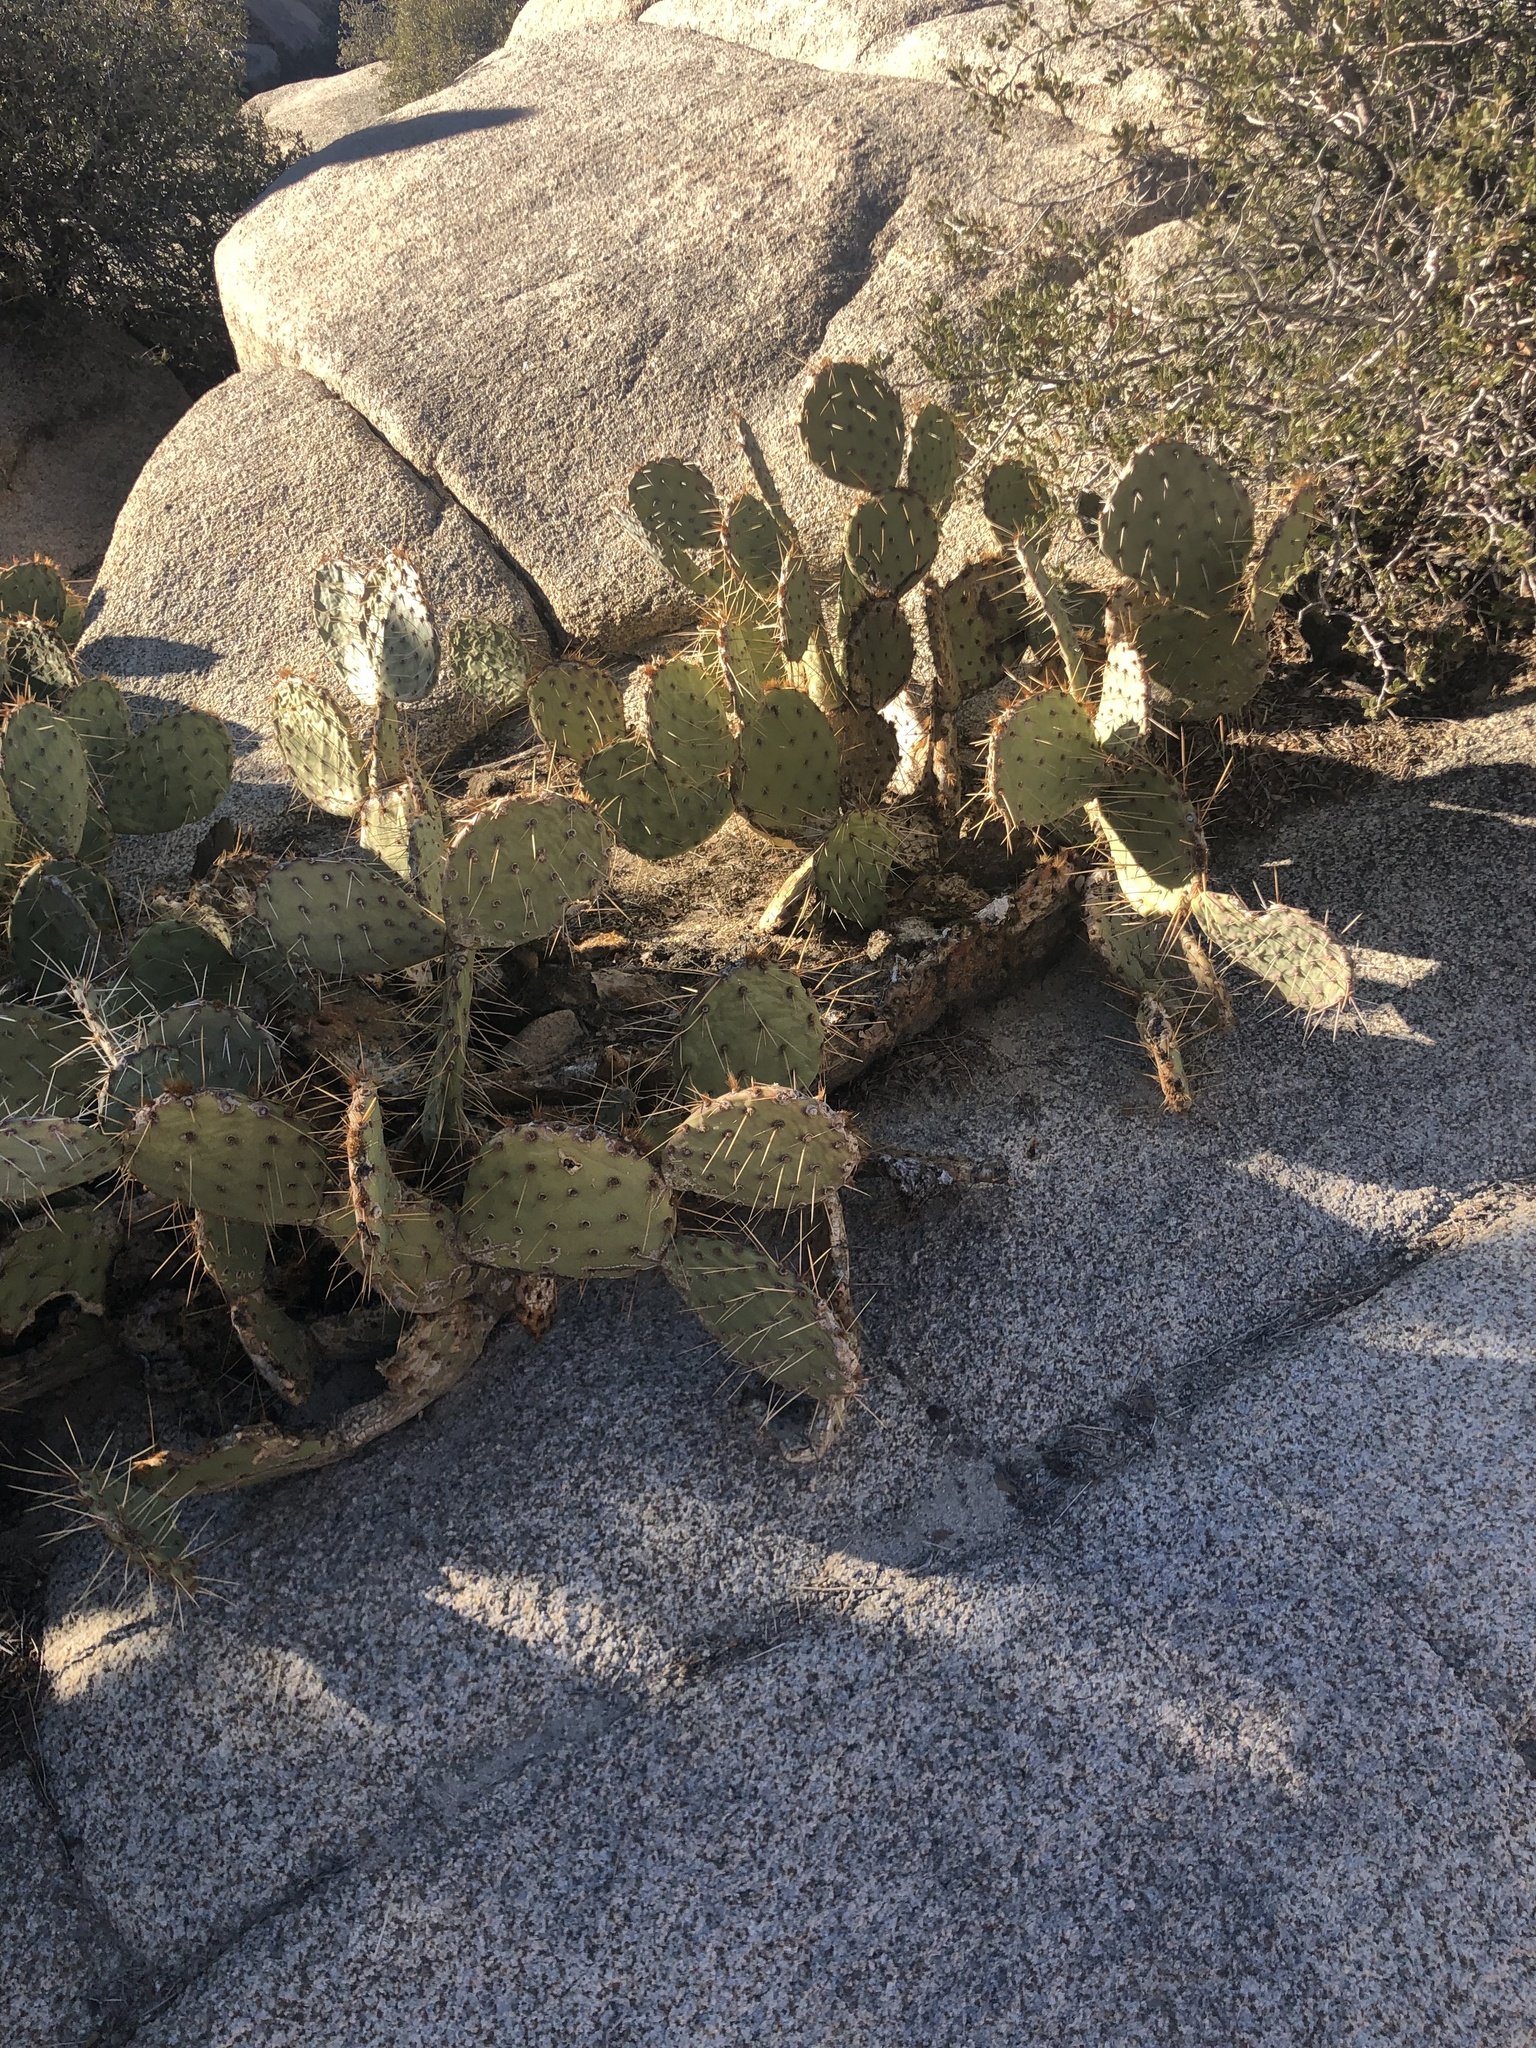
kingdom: Plantae
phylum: Tracheophyta
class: Magnoliopsida
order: Caryophyllales
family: Cactaceae
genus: Opuntia
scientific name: Opuntia phaeacantha
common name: New mexico prickly-pear
